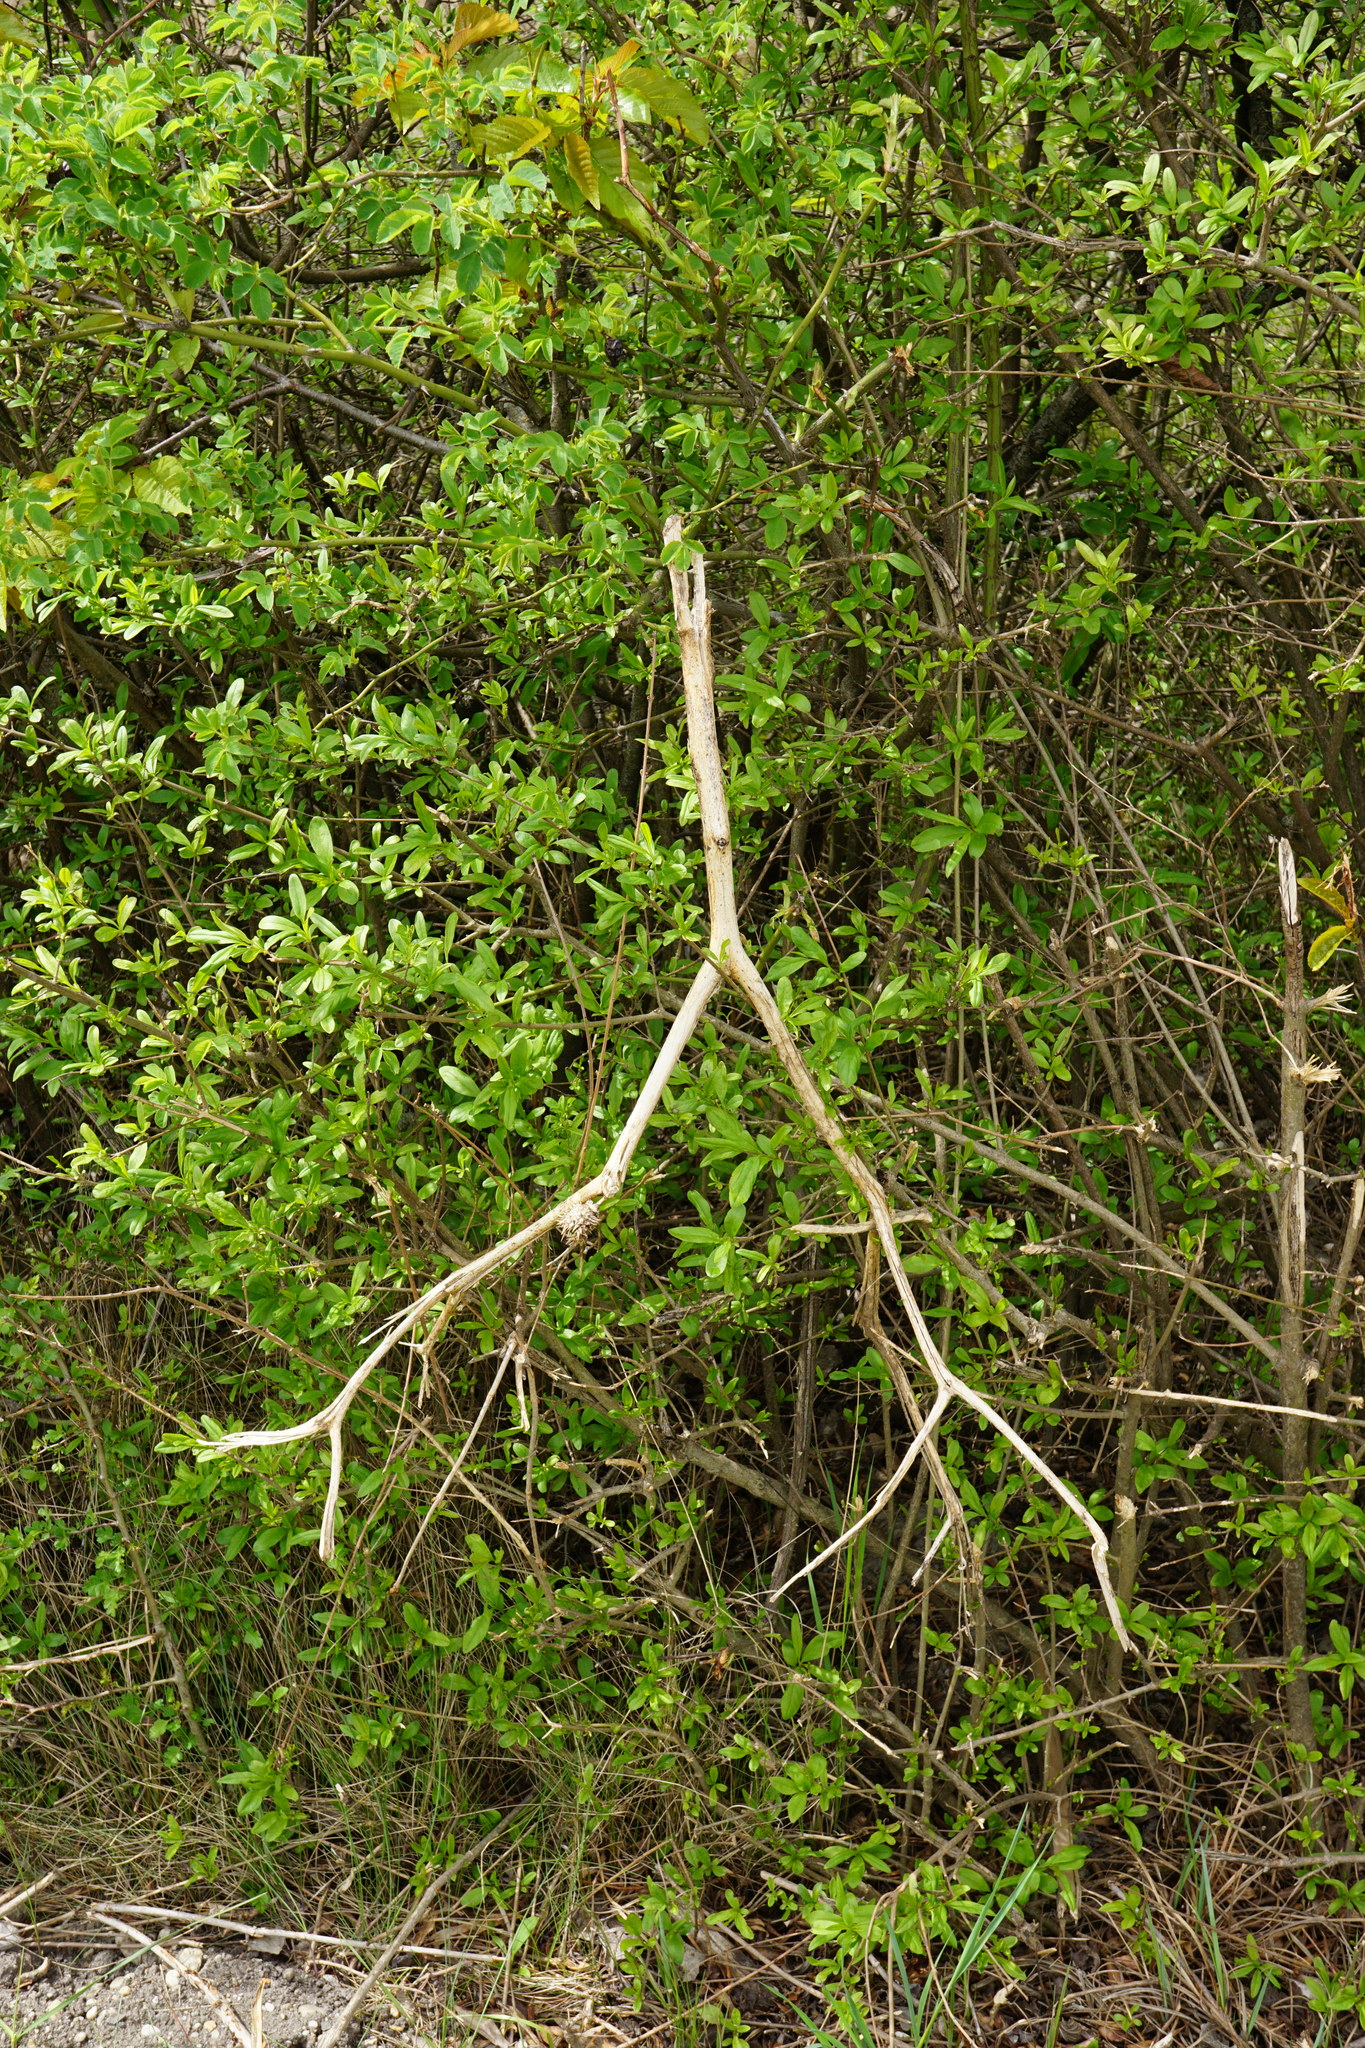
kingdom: Plantae
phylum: Tracheophyta
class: Magnoliopsida
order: Solanales
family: Solanaceae
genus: Datura
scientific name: Datura stramonium
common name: Thorn-apple
